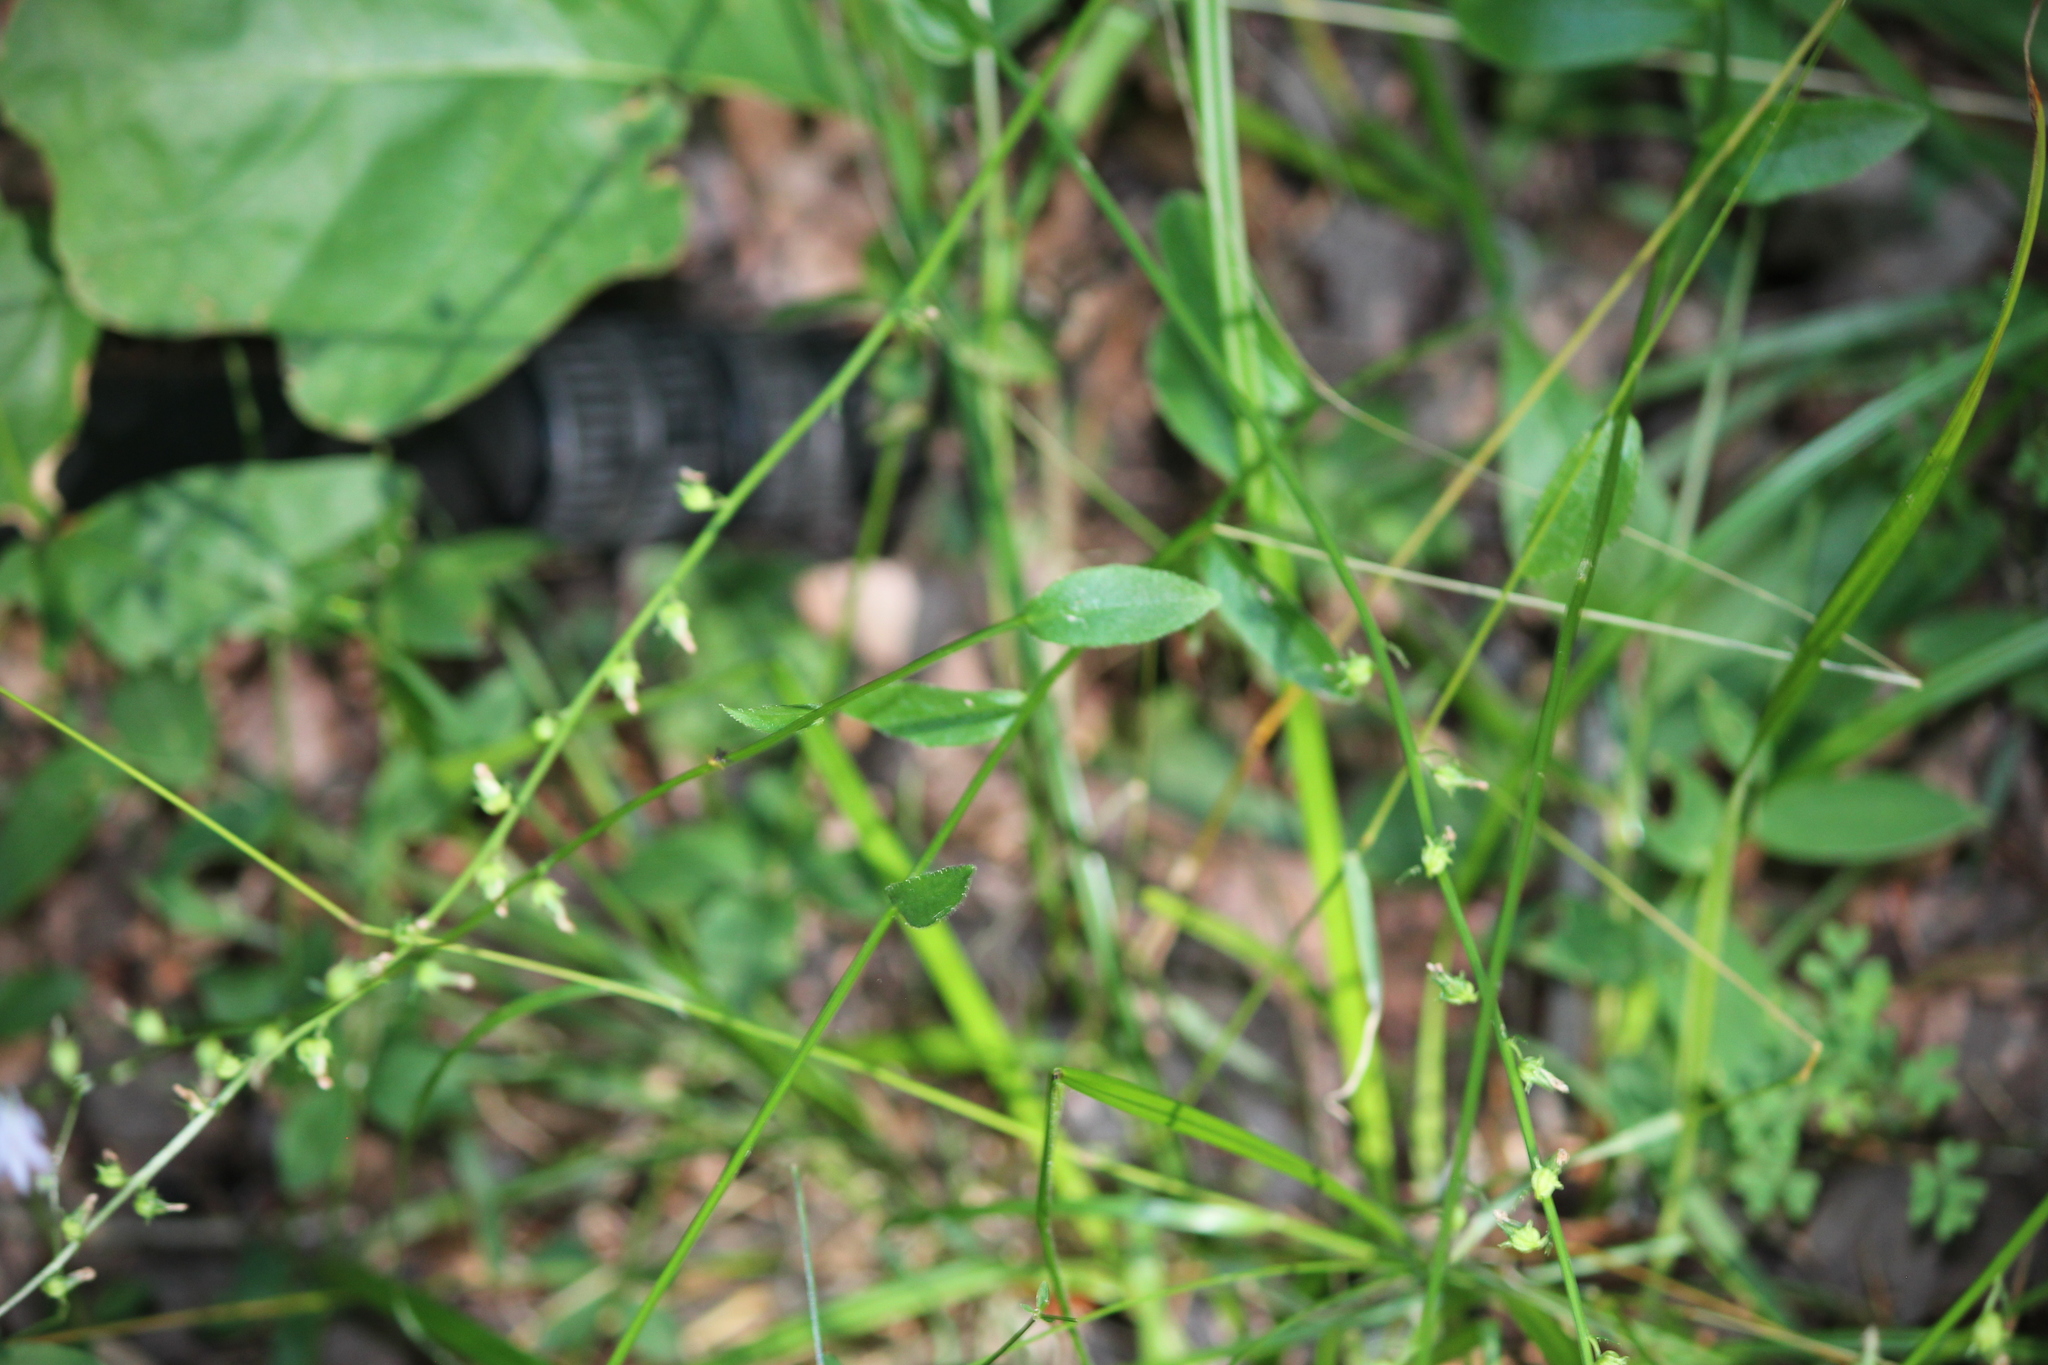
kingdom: Plantae
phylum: Tracheophyta
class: Magnoliopsida
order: Asterales
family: Campanulaceae
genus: Lobelia
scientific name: Lobelia spicata
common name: Pale-spike lobelia
